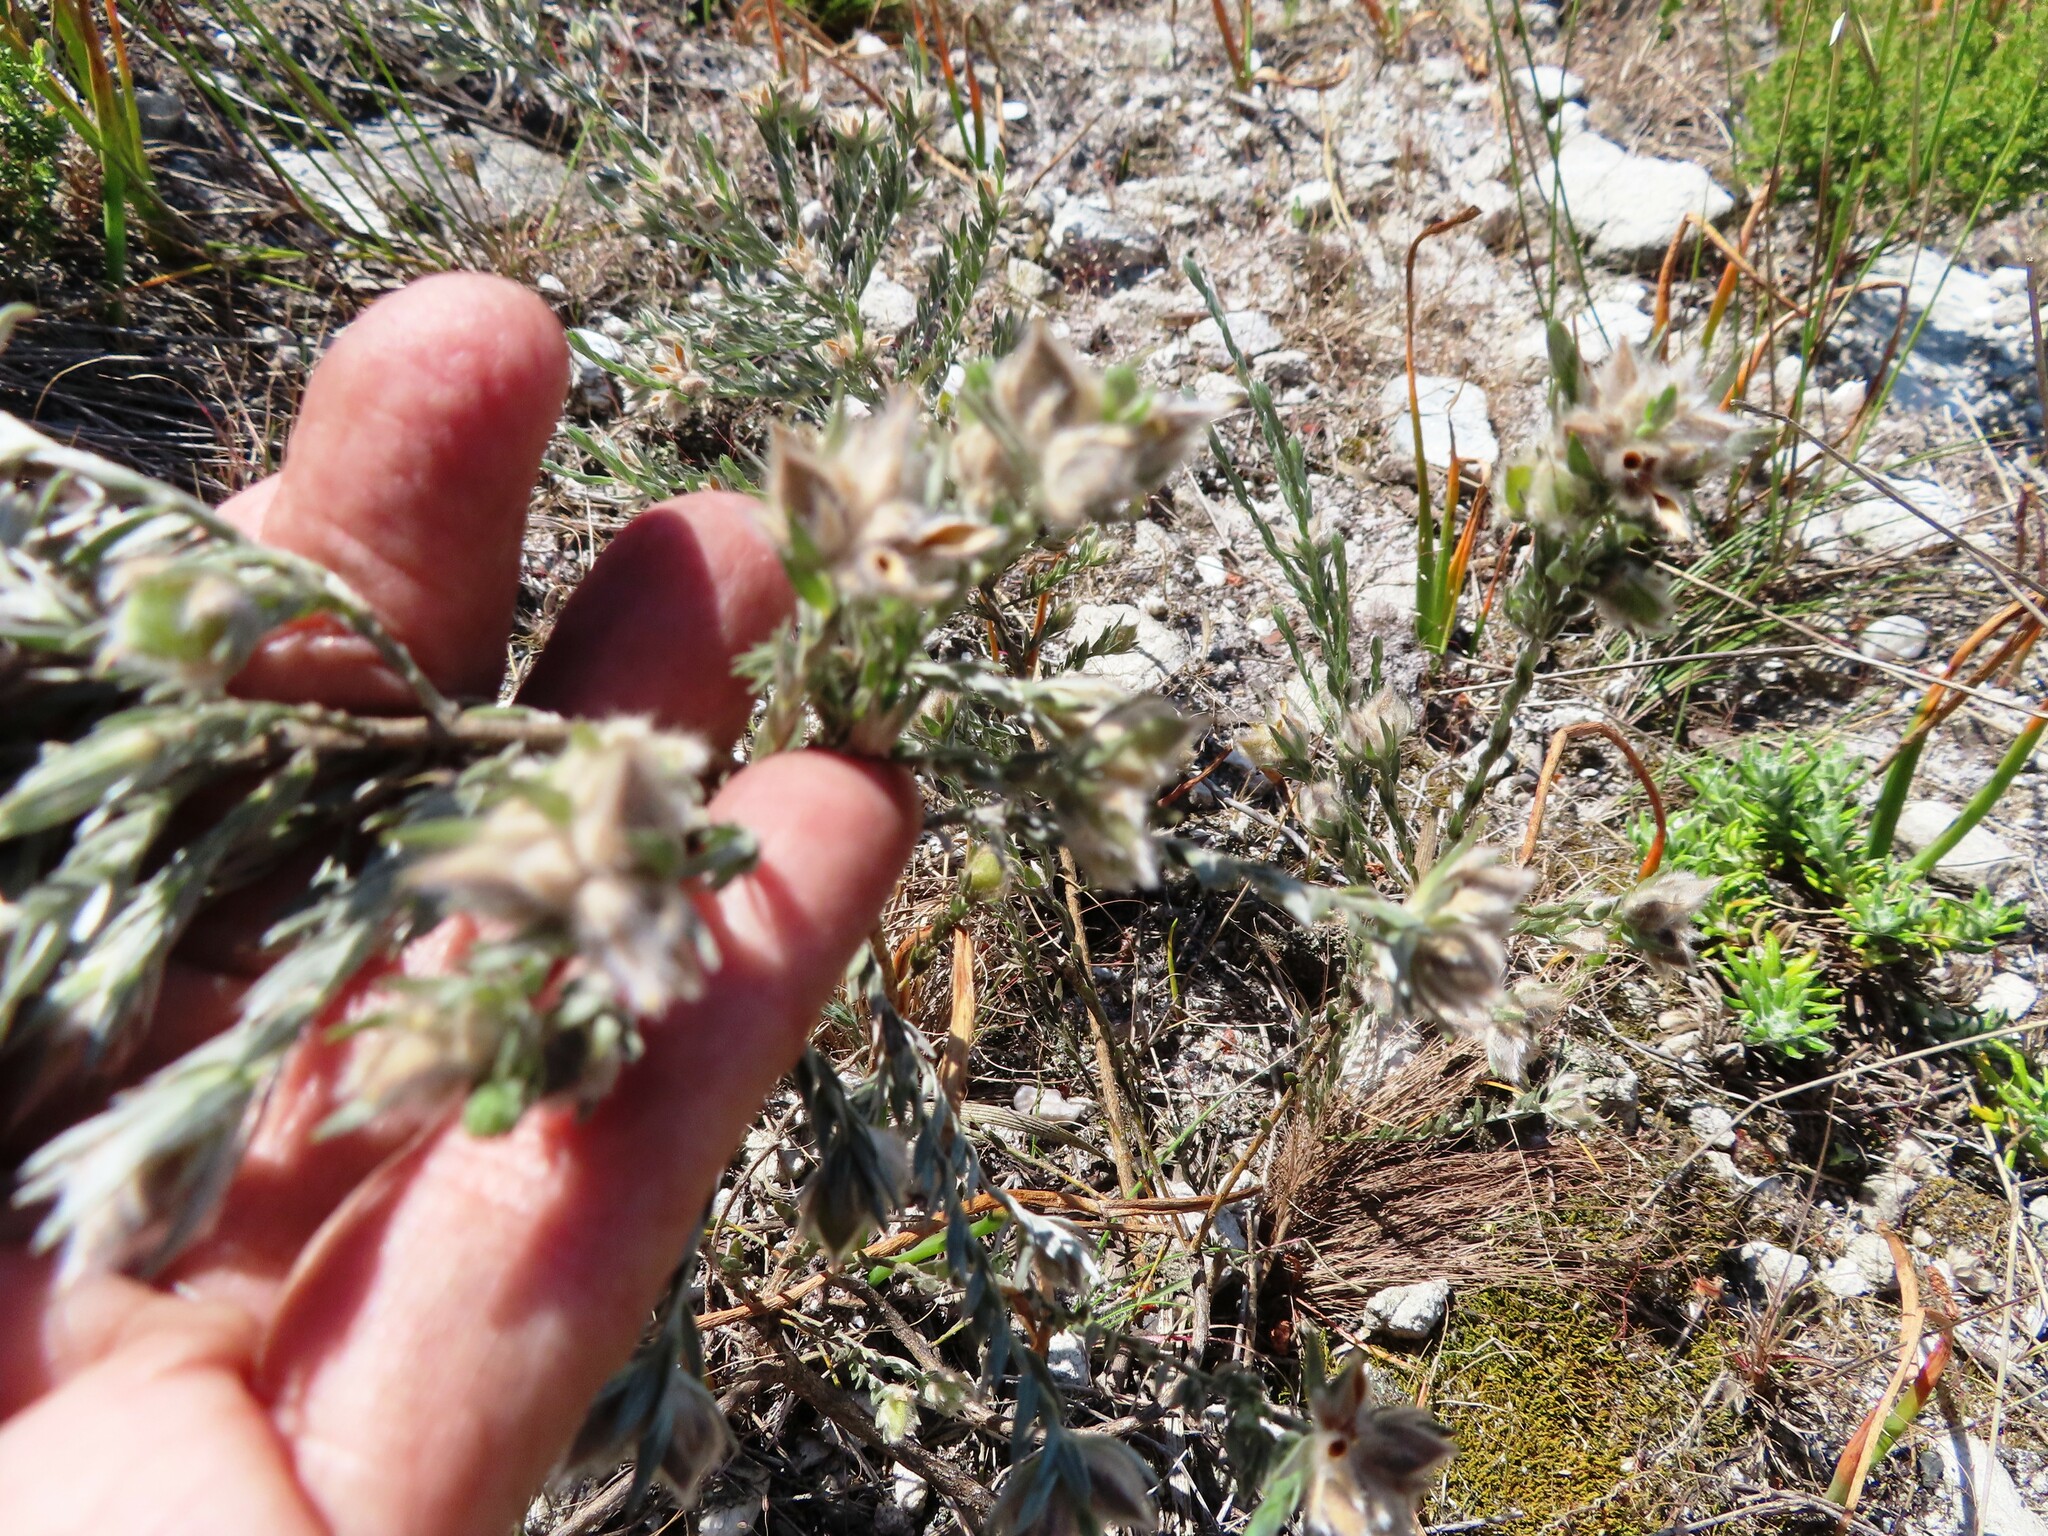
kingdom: Plantae
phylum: Tracheophyta
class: Magnoliopsida
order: Fabales
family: Fabaceae
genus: Amphithalea
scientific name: Amphithalea tomentosa
